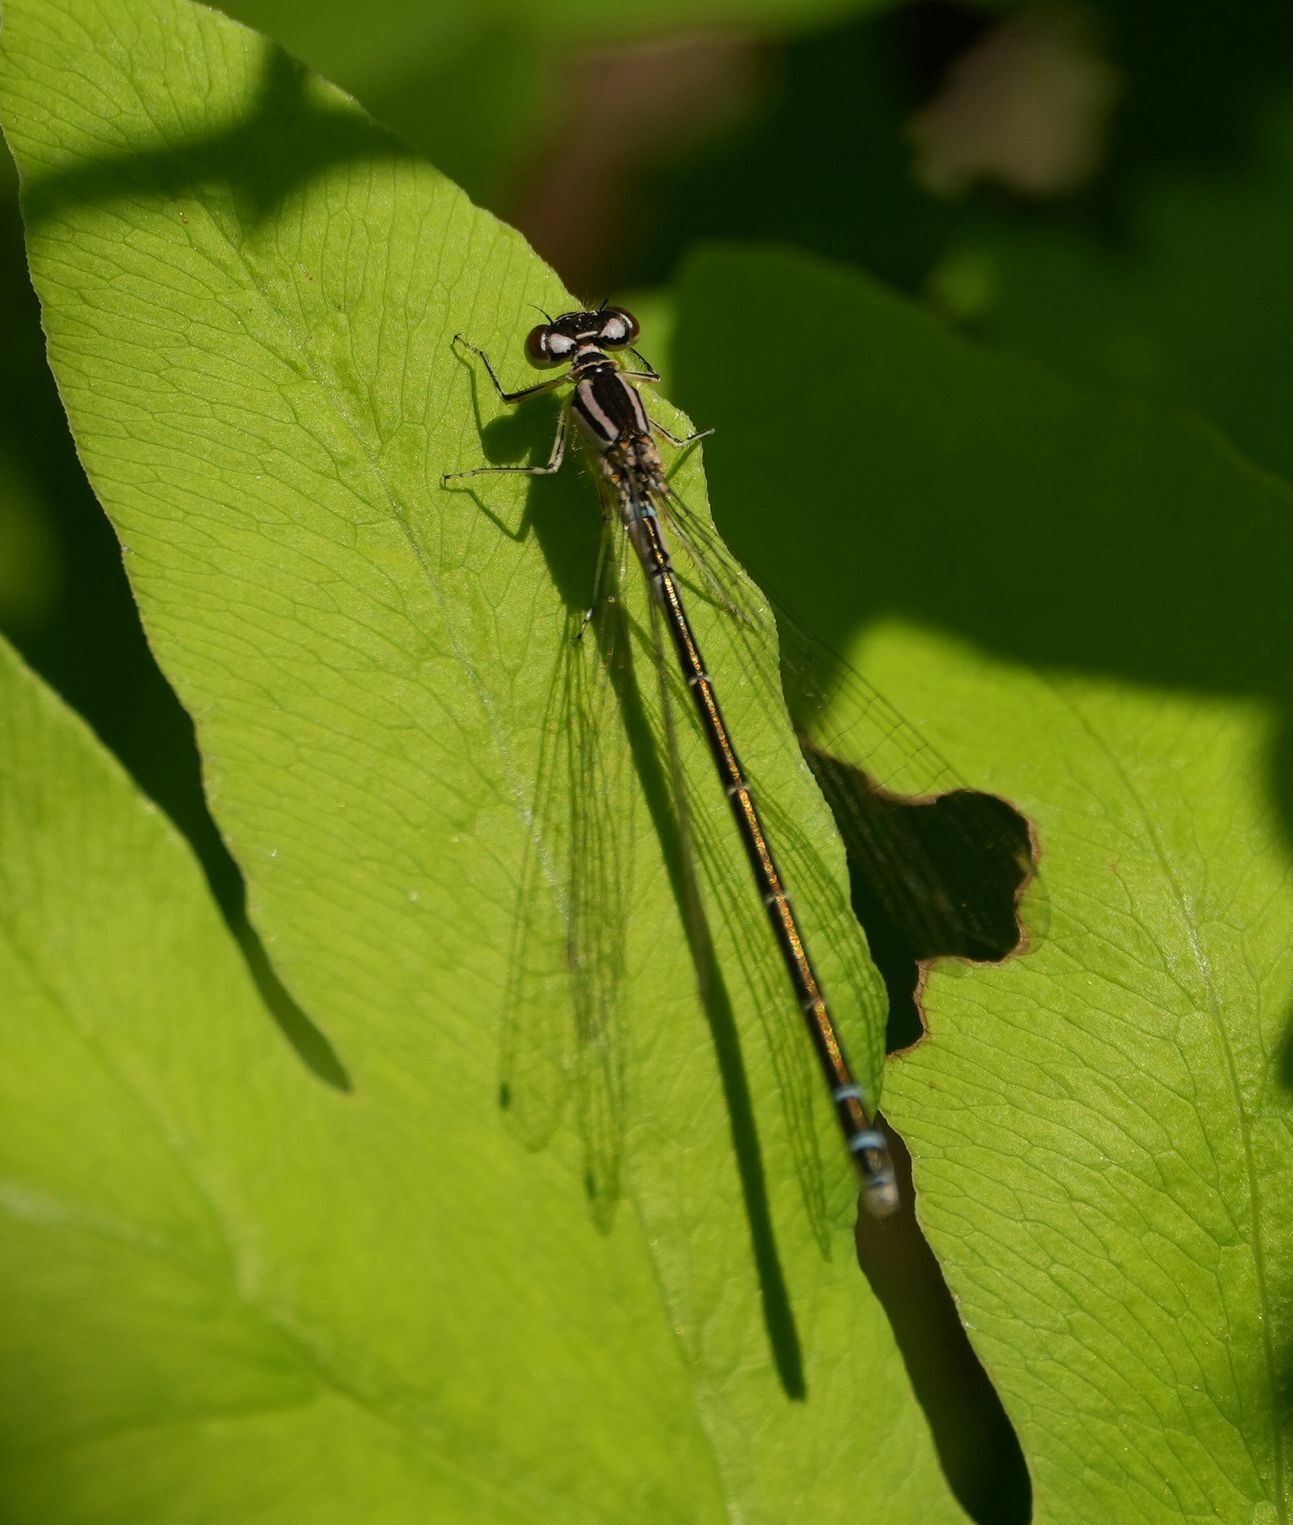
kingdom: Animalia
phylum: Arthropoda
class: Insecta
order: Odonata
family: Coenagrionidae
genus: Coenagrion
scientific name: Coenagrion resolutum
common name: Taiga bluet
